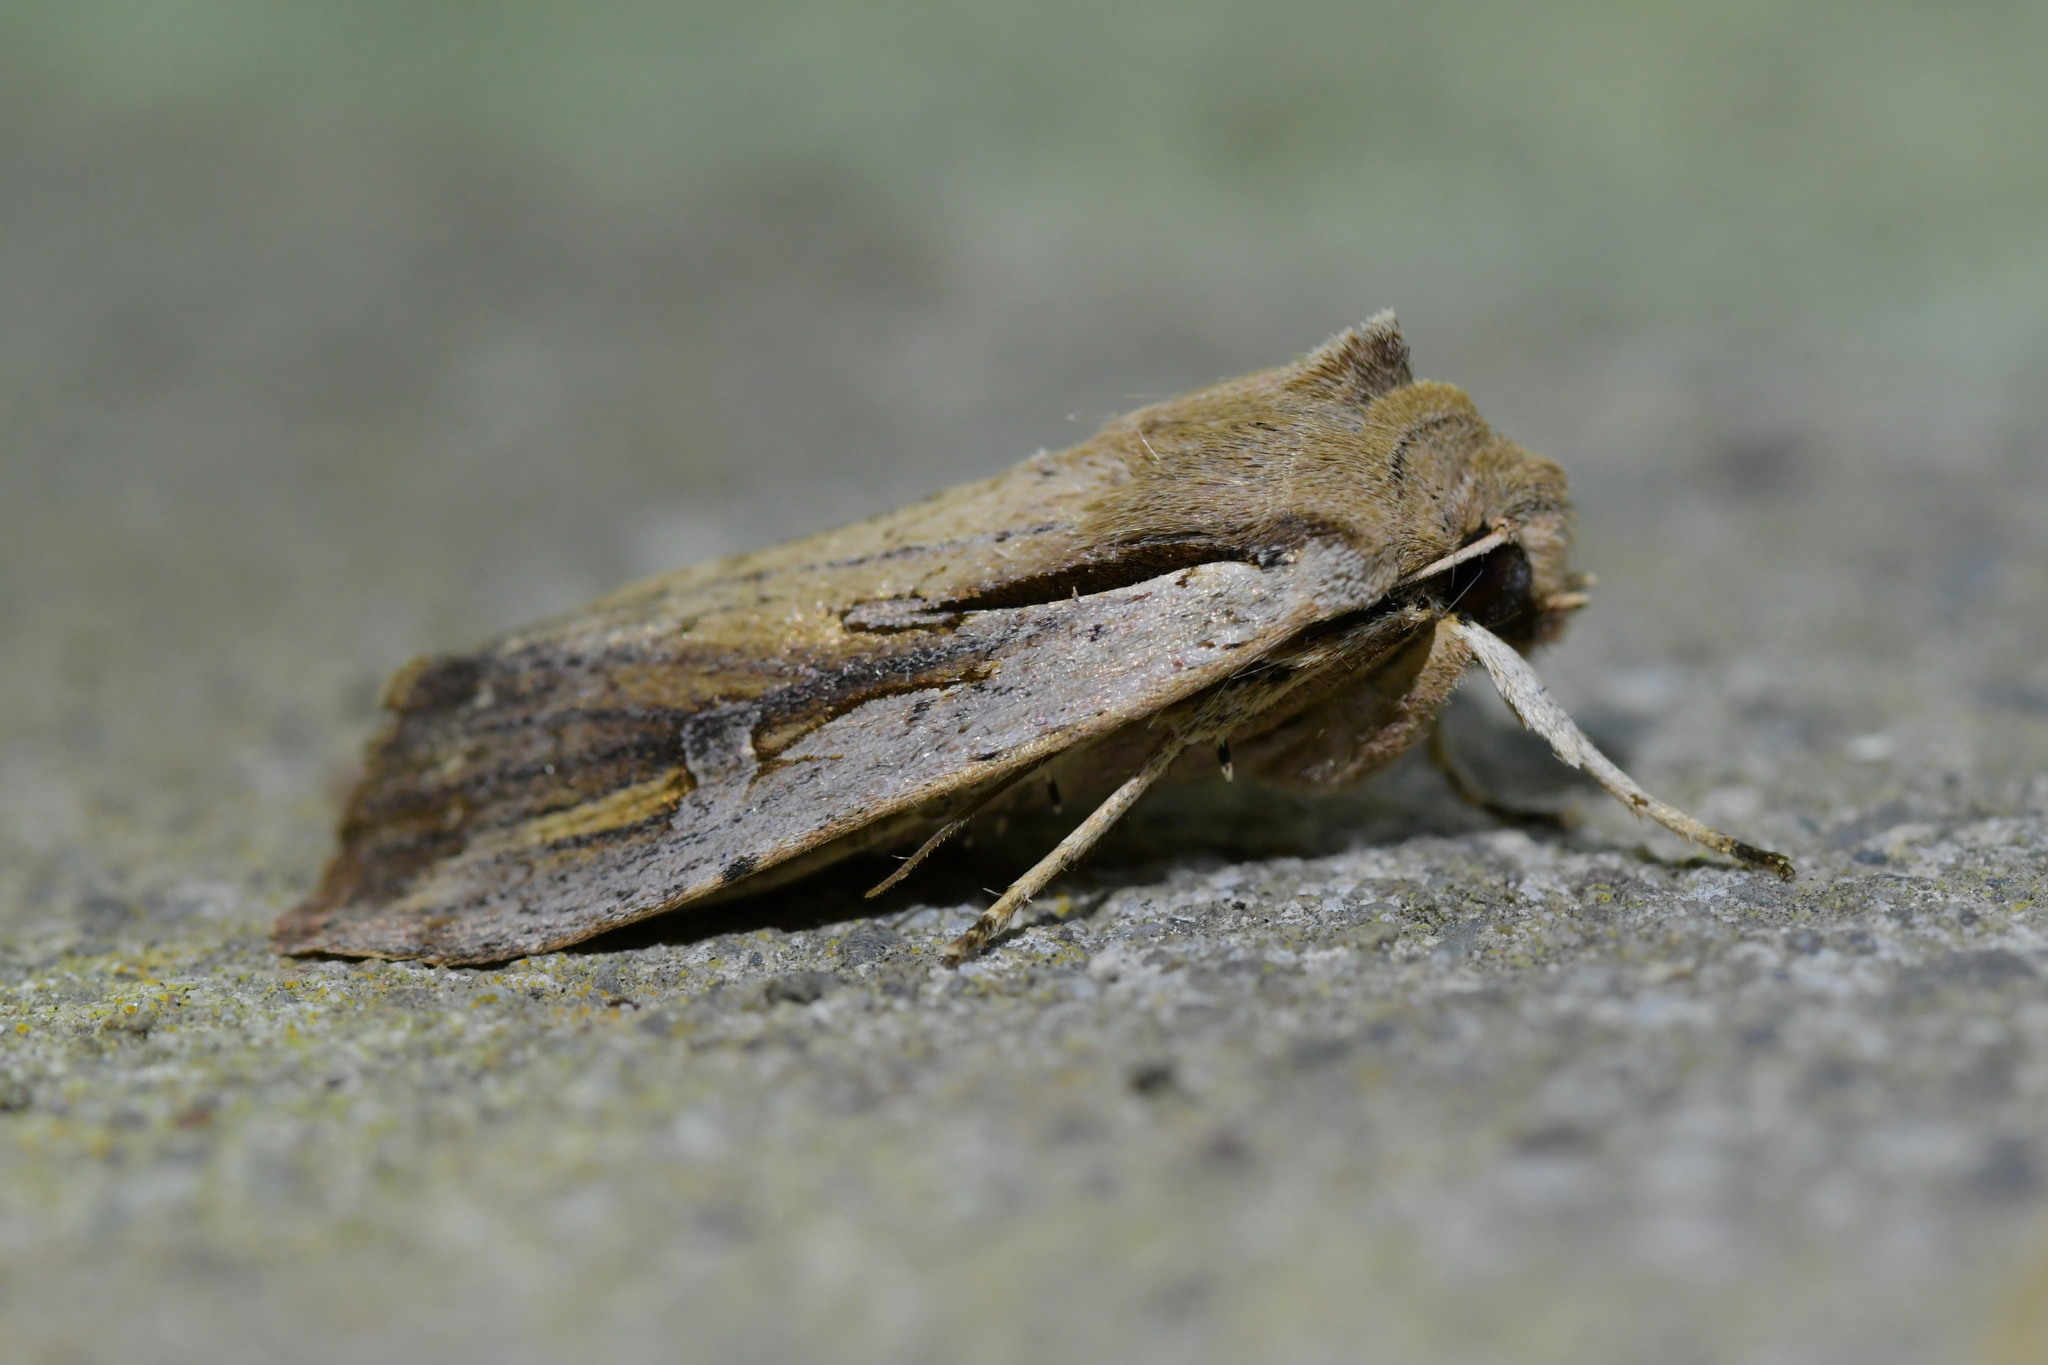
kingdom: Animalia
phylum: Arthropoda
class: Insecta
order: Lepidoptera
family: Noctuidae
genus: Ichneutica
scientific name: Ichneutica atristriga
